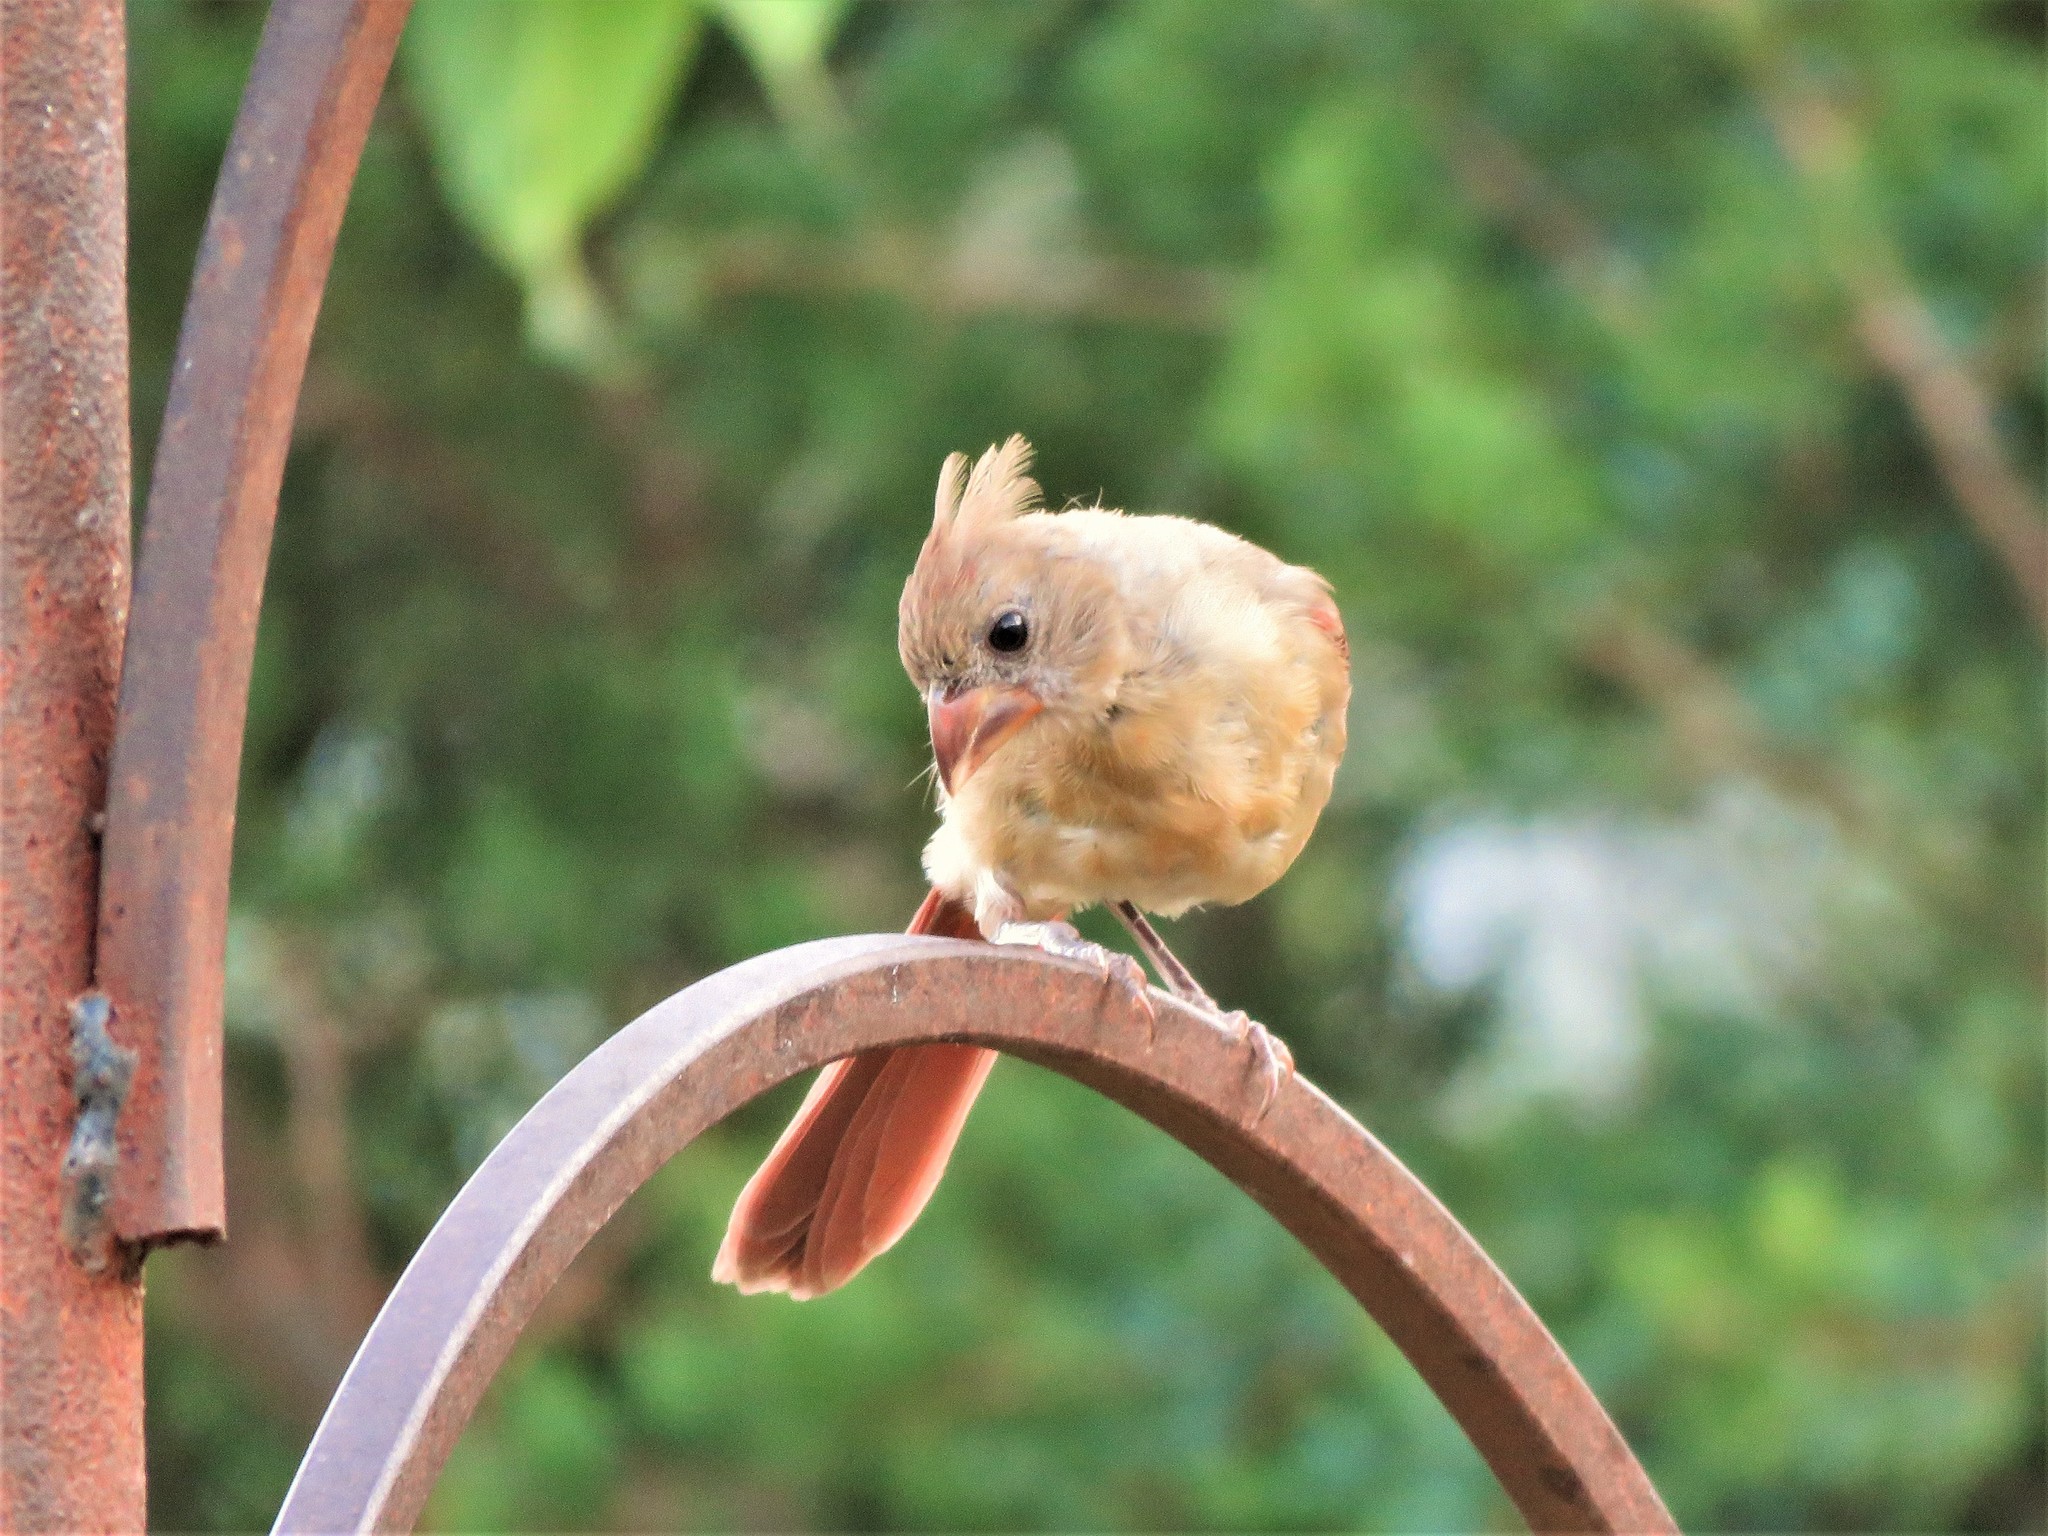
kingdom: Animalia
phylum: Chordata
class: Aves
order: Passeriformes
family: Cardinalidae
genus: Cardinalis
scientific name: Cardinalis cardinalis
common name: Northern cardinal
